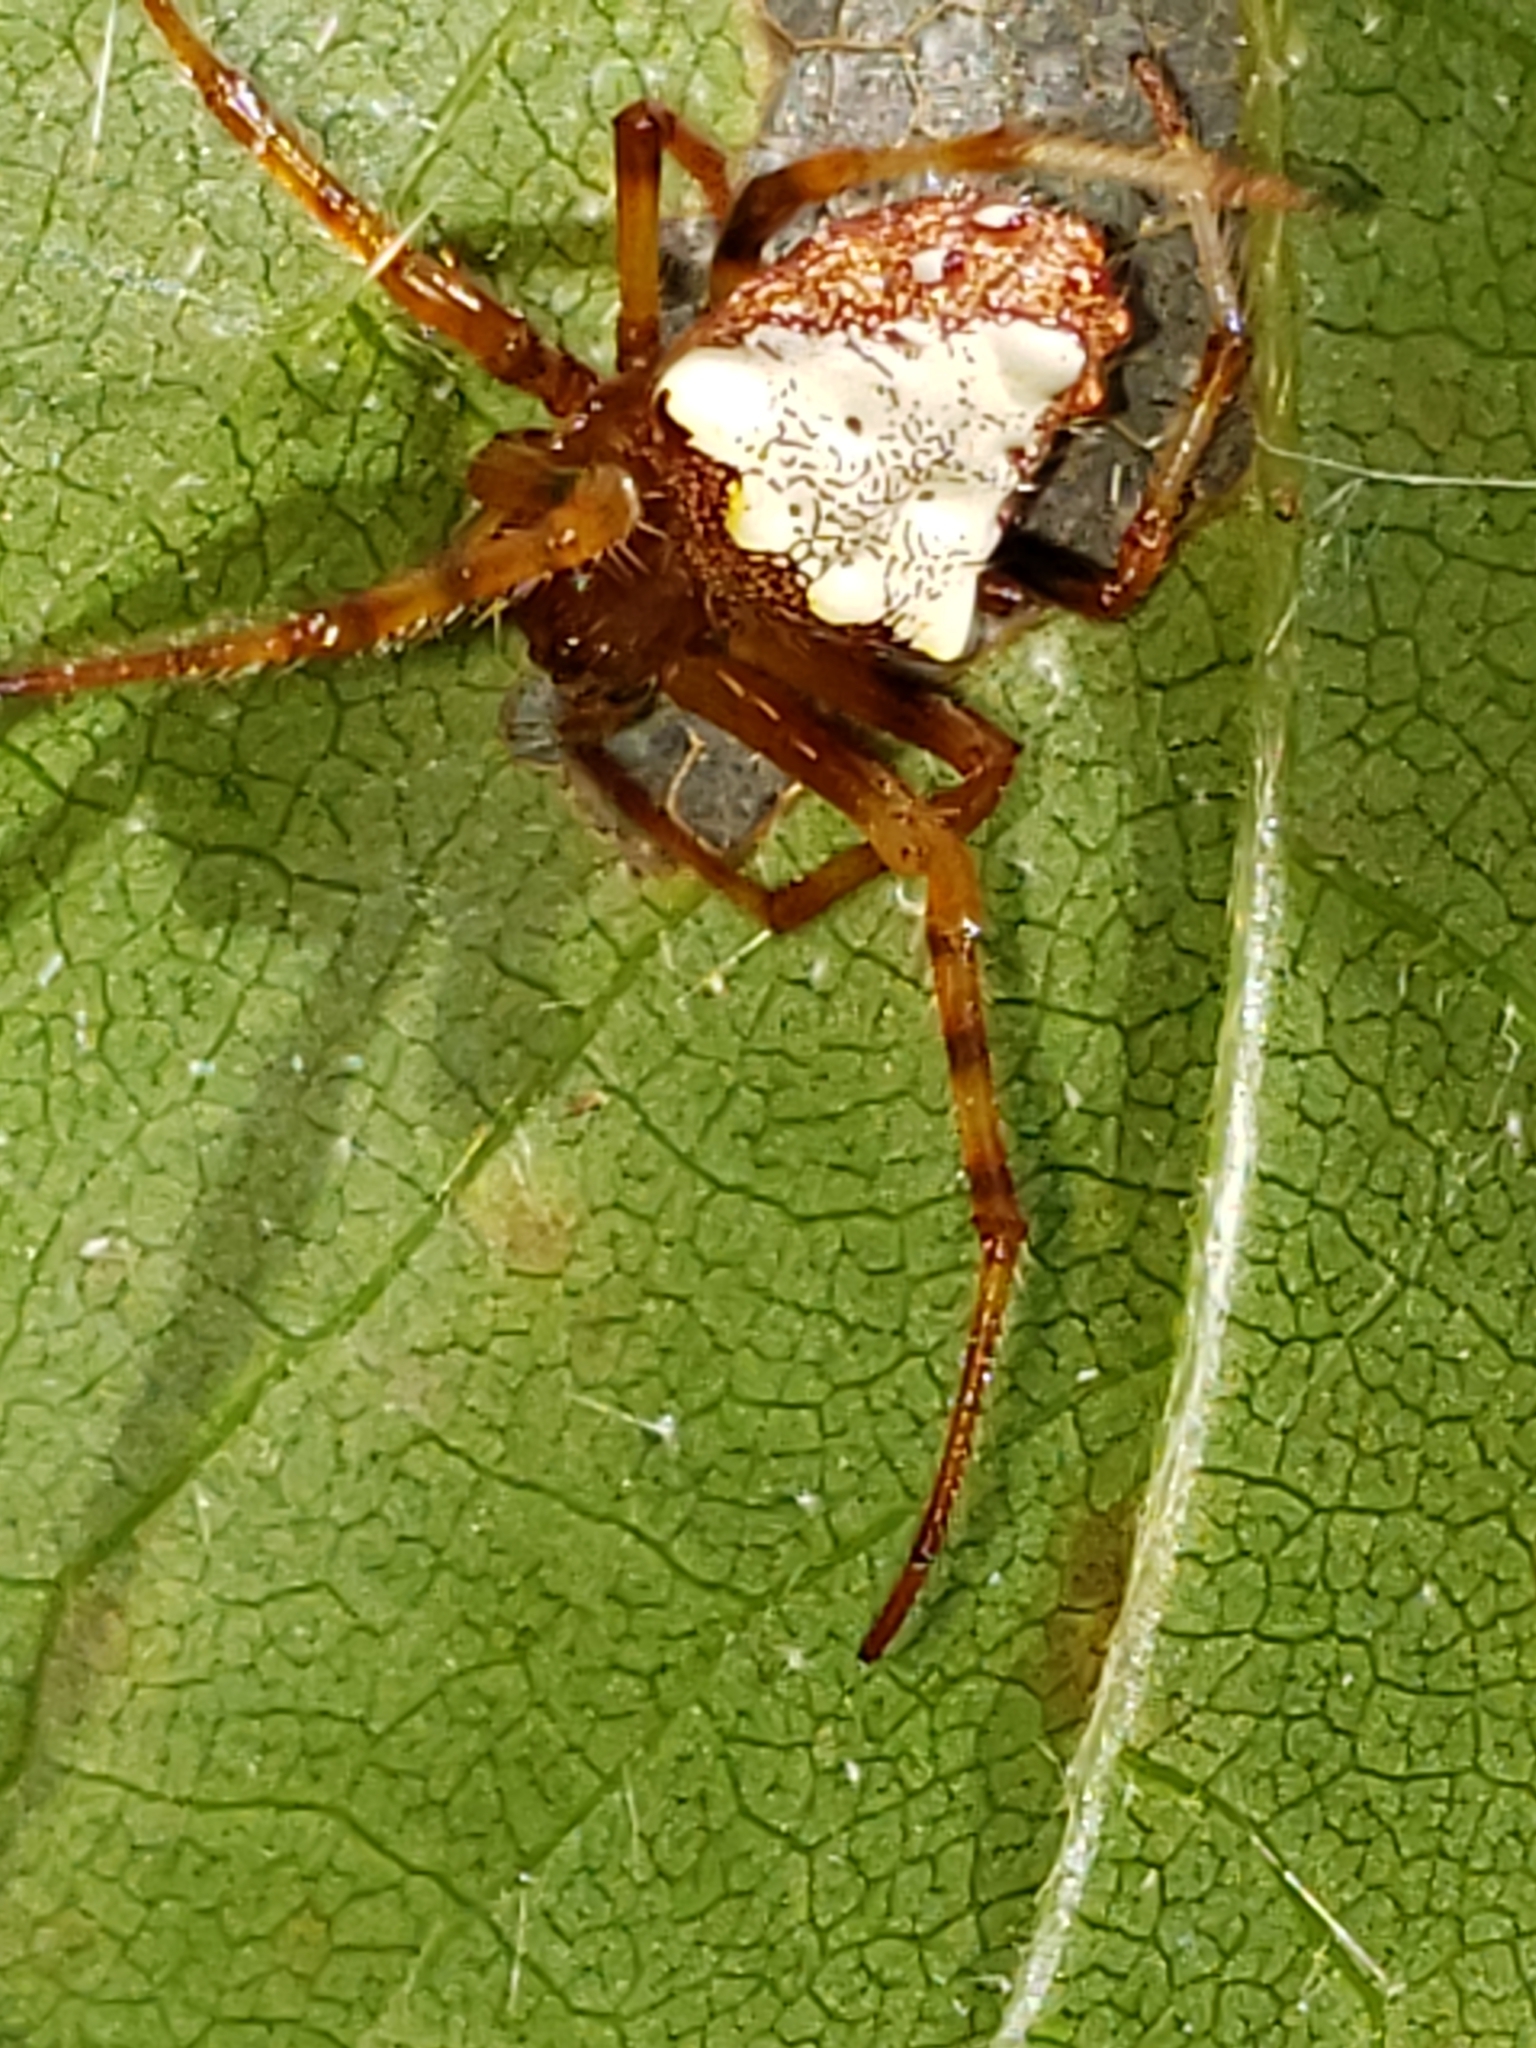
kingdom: Animalia
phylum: Arthropoda
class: Arachnida
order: Araneae
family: Araneidae
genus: Verrucosa
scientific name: Verrucosa arenata
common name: Orb weavers
